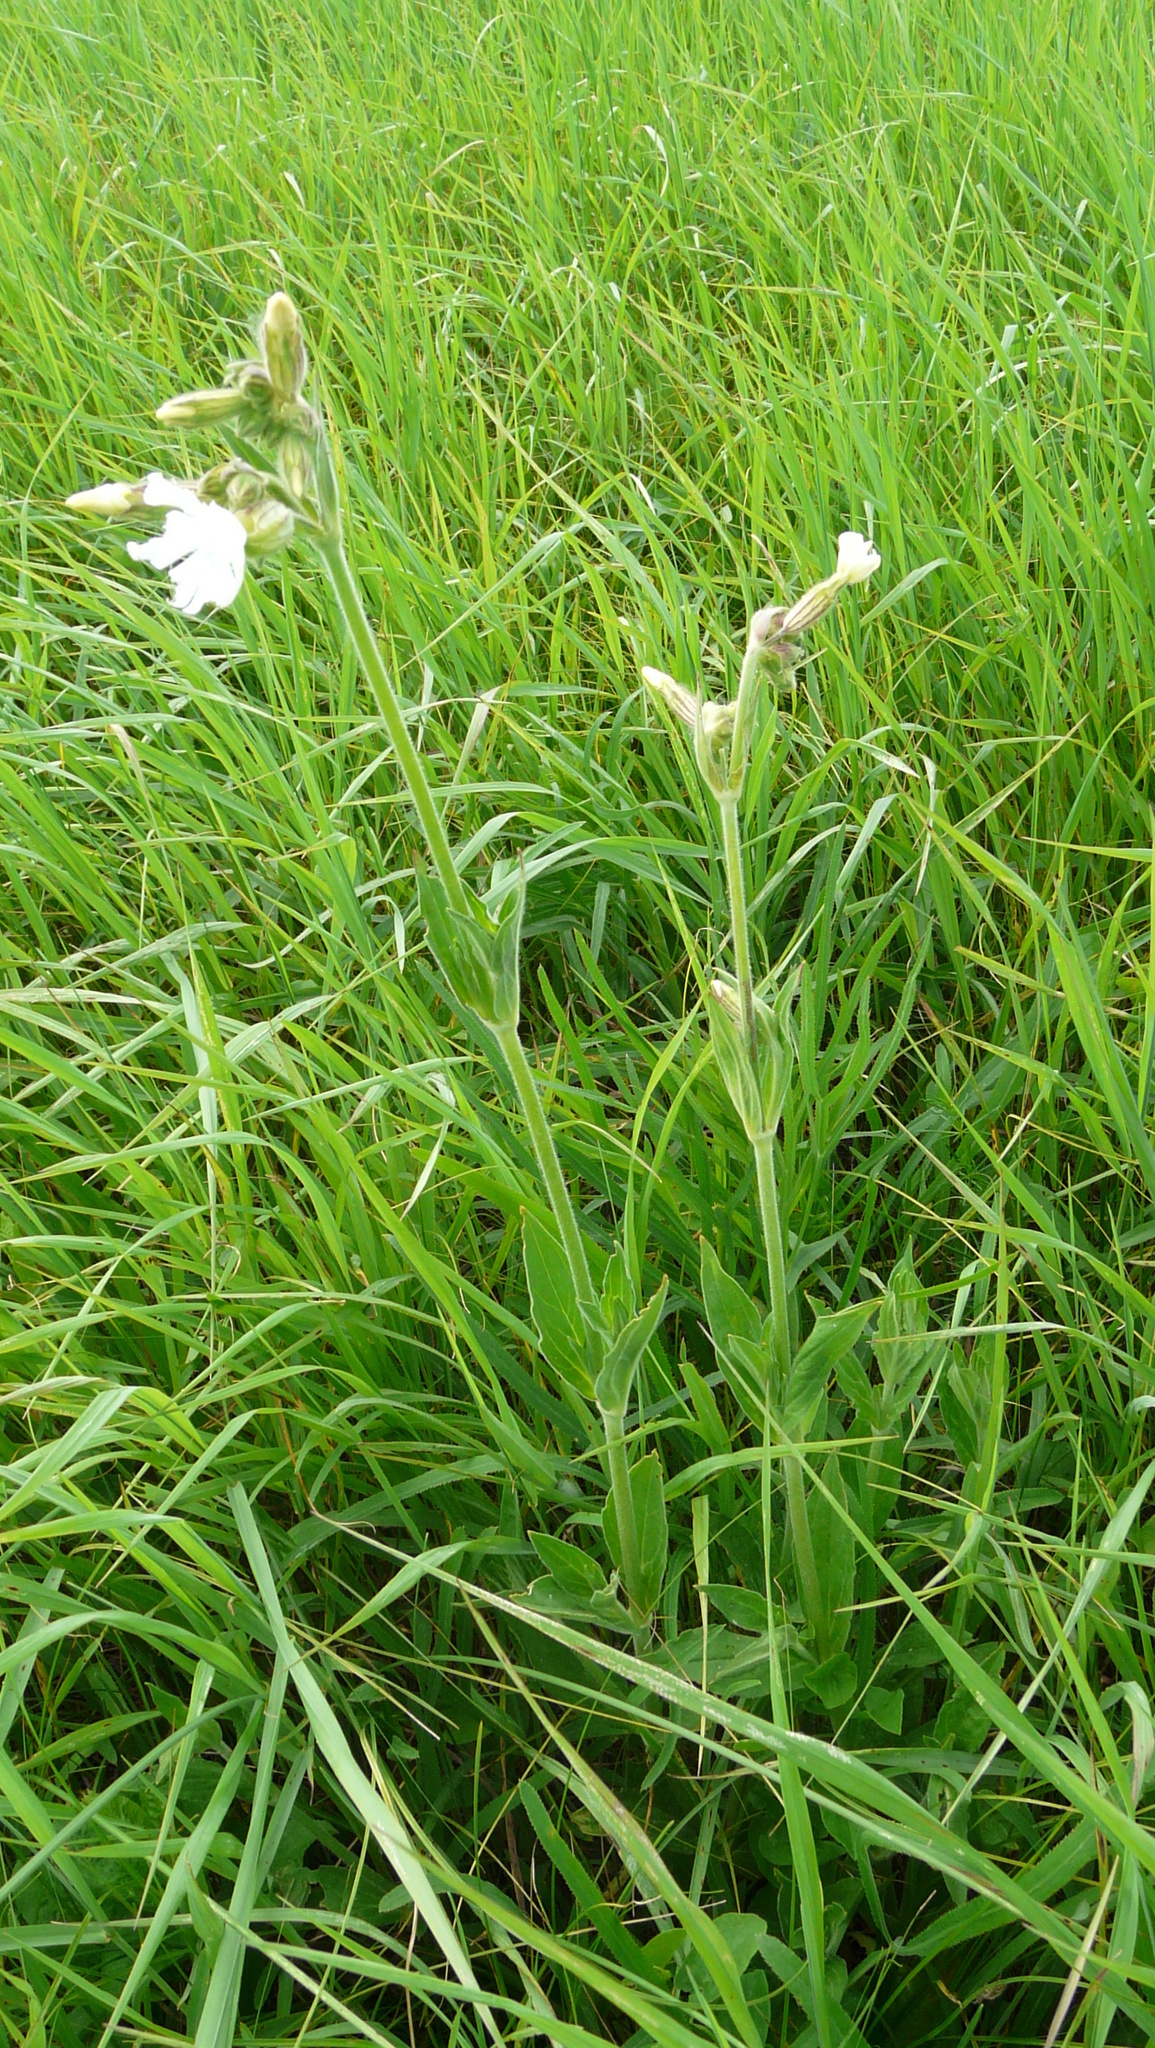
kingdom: Plantae
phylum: Tracheophyta
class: Magnoliopsida
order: Caryophyllales
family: Caryophyllaceae
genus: Silene
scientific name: Silene latifolia
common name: White campion
